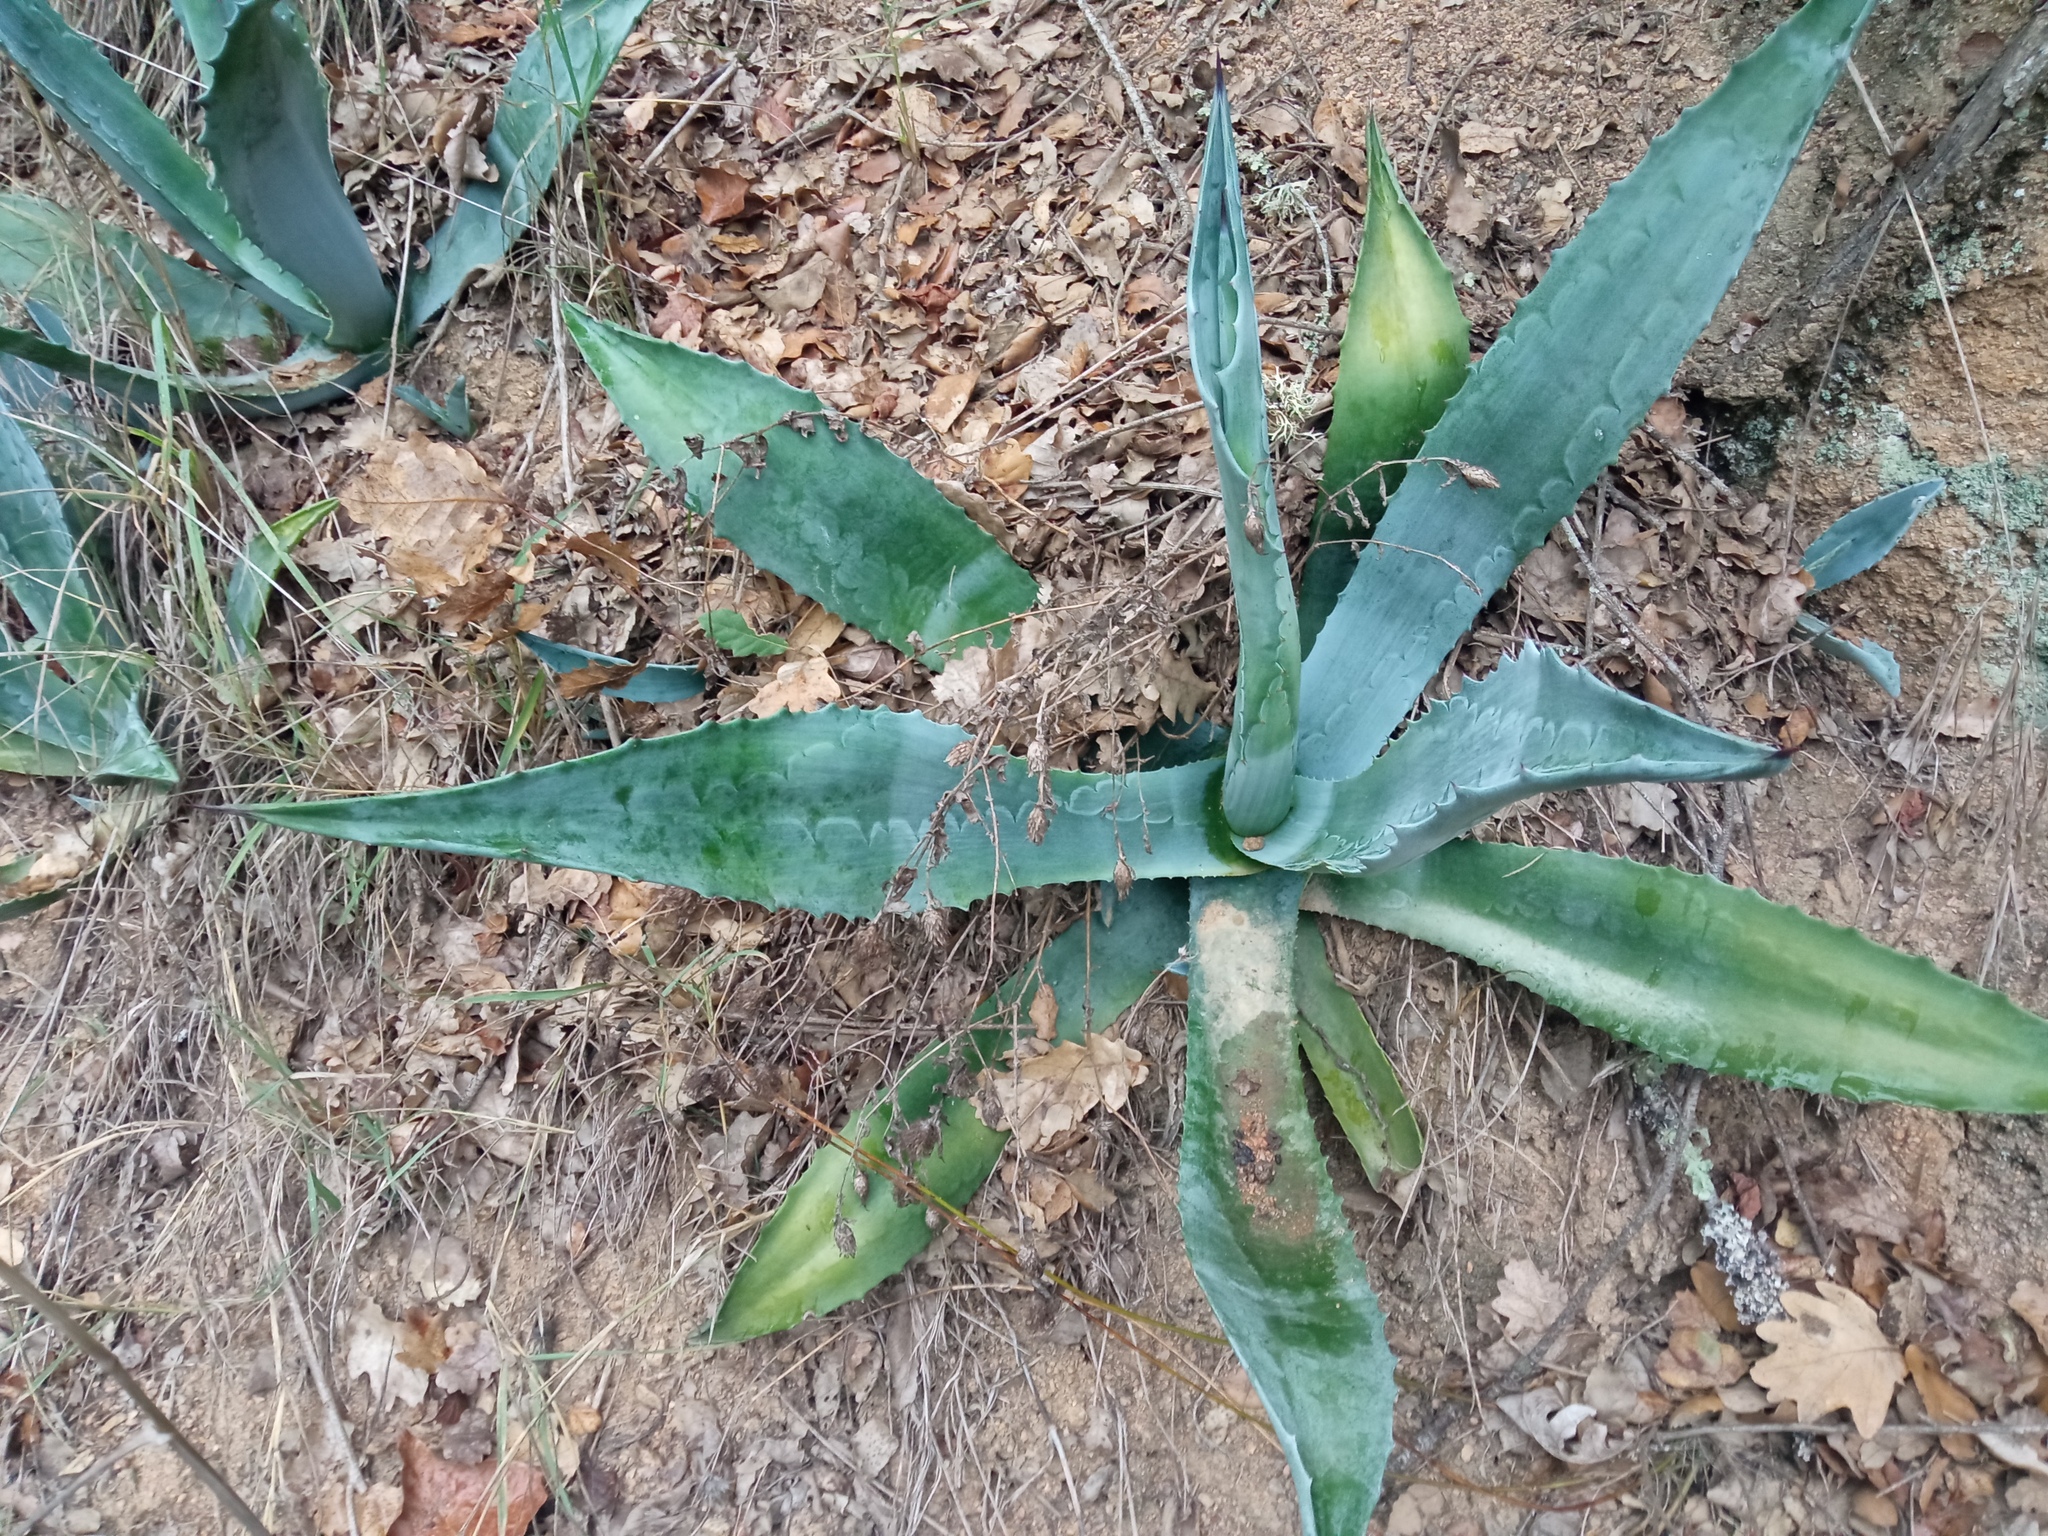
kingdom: Plantae
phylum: Tracheophyta
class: Liliopsida
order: Asparagales
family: Asparagaceae
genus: Agave
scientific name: Agave americana
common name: Centuryplant
